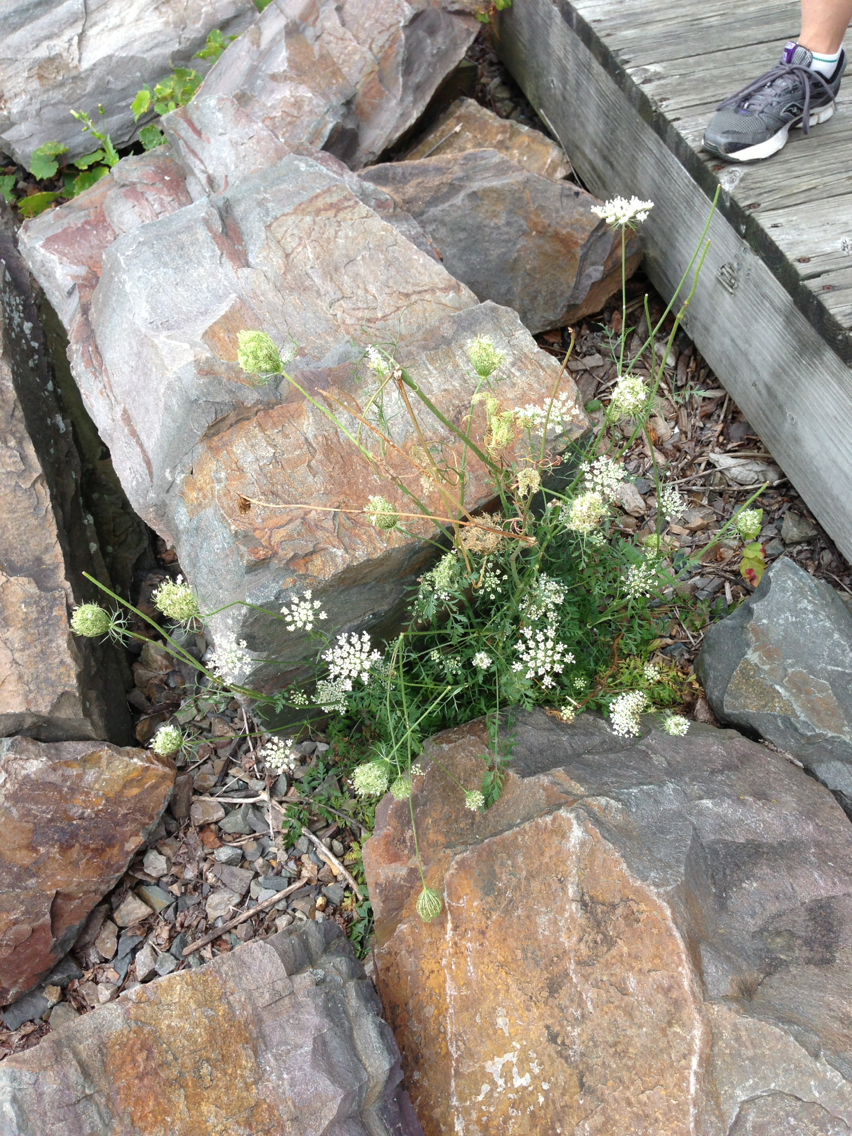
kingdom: Plantae
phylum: Tracheophyta
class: Magnoliopsida
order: Apiales
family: Apiaceae
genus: Daucus
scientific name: Daucus carota
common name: Wild carrot
